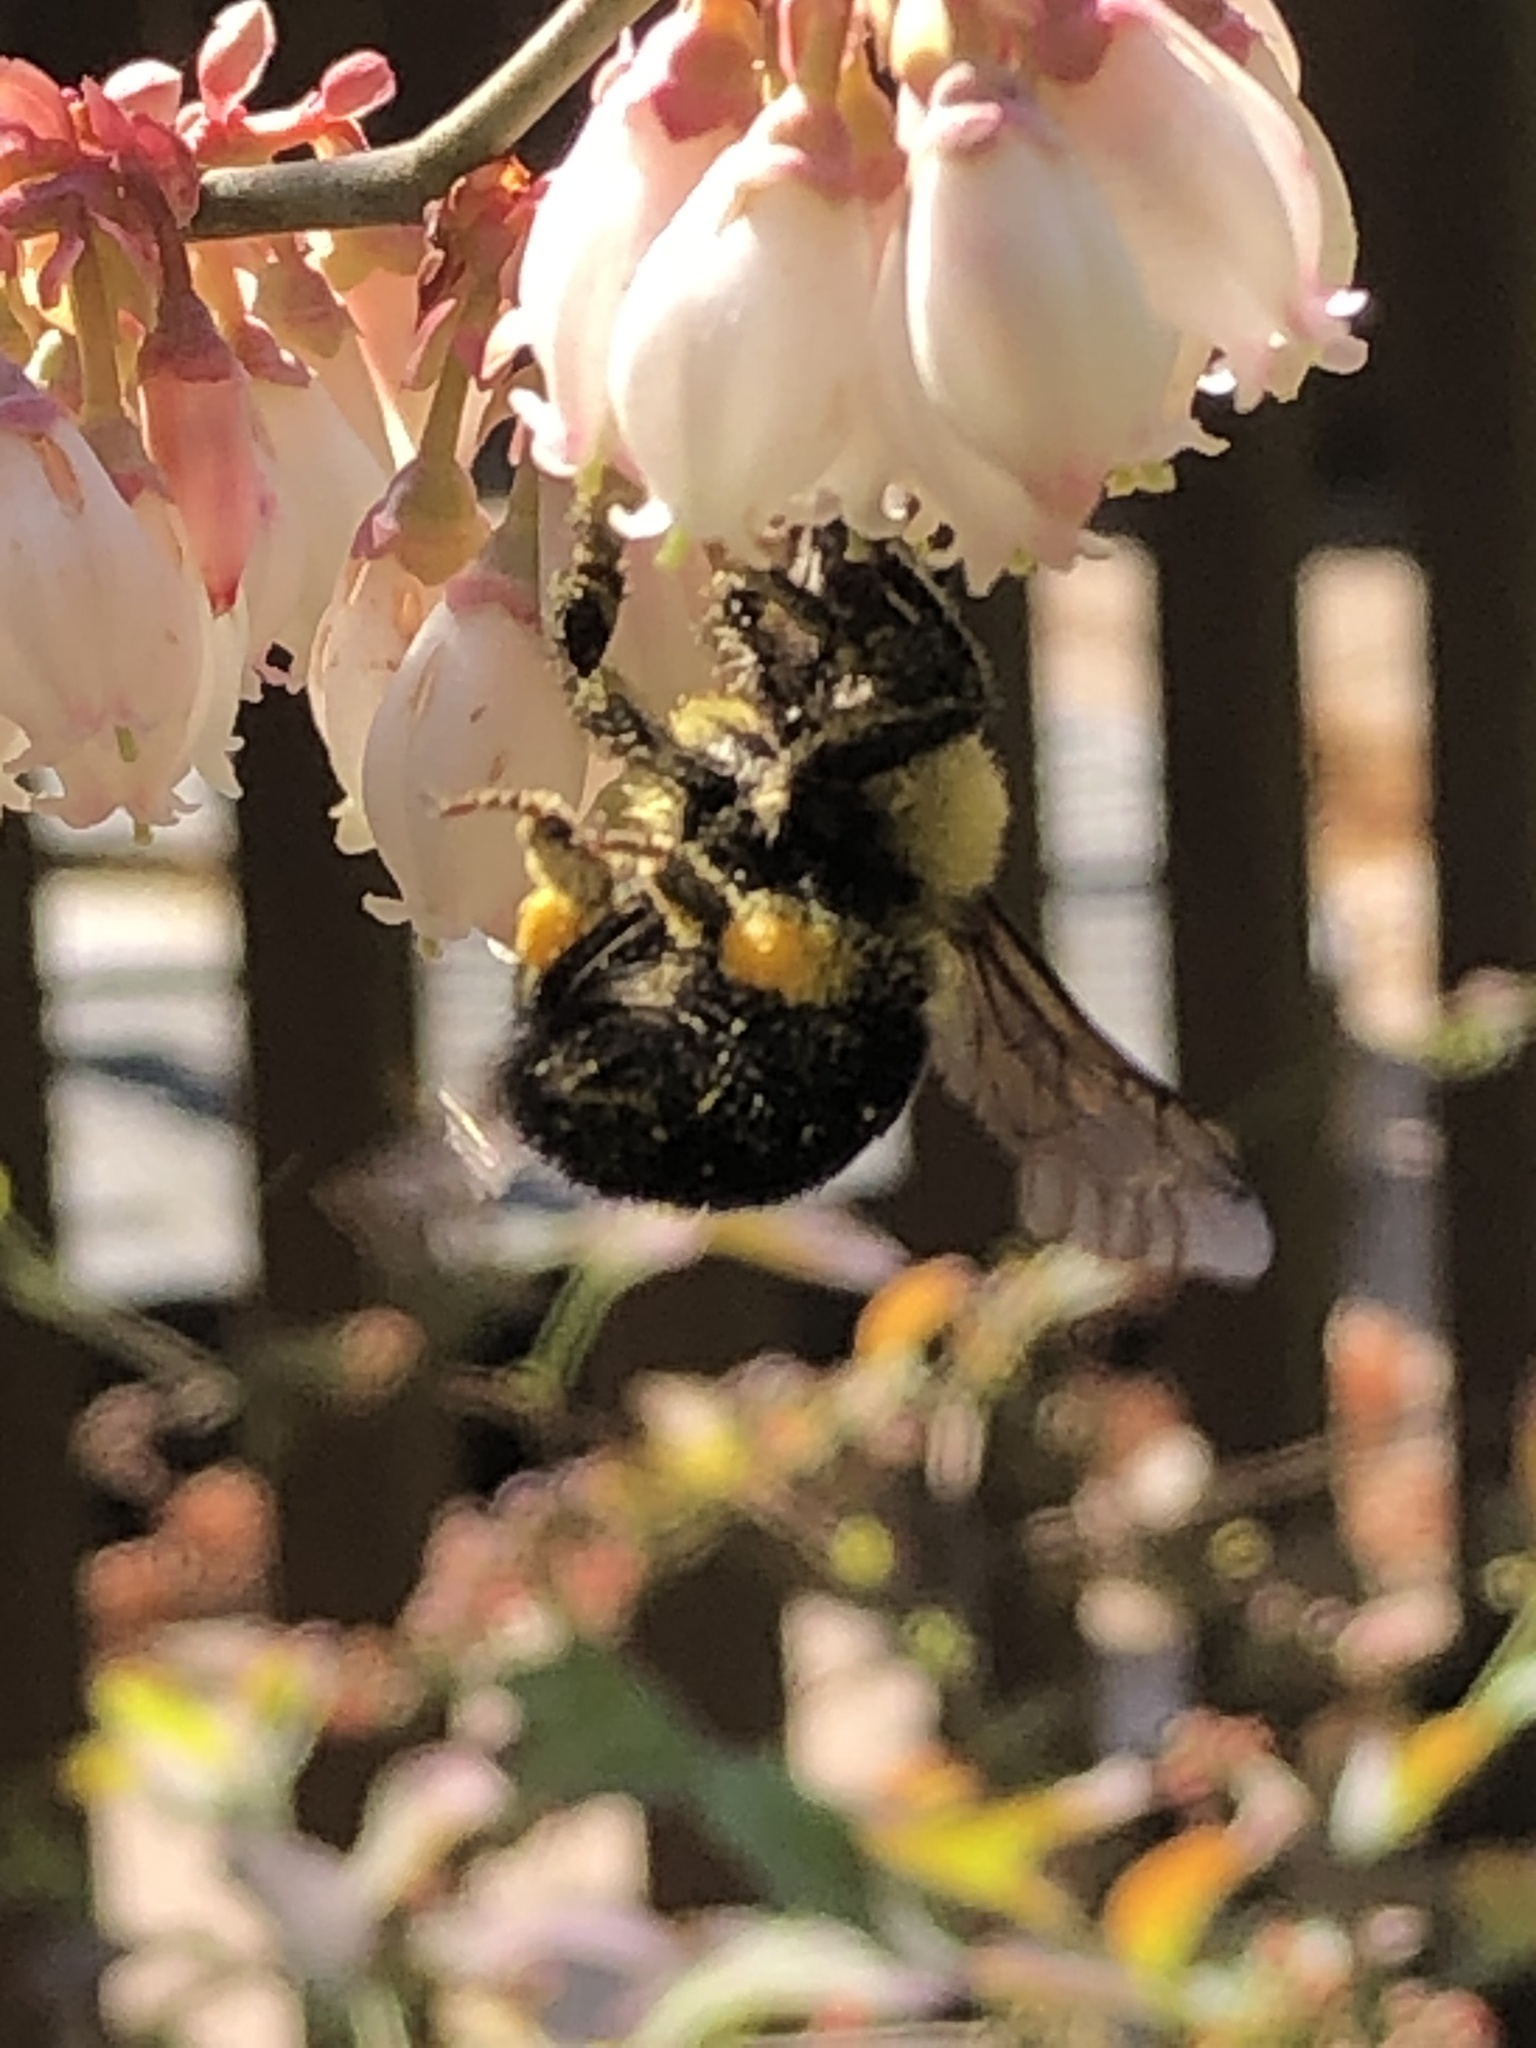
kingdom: Animalia
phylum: Arthropoda
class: Insecta
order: Hymenoptera
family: Apidae
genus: Bombus
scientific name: Bombus bimaculatus
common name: Two-spotted bumble bee
